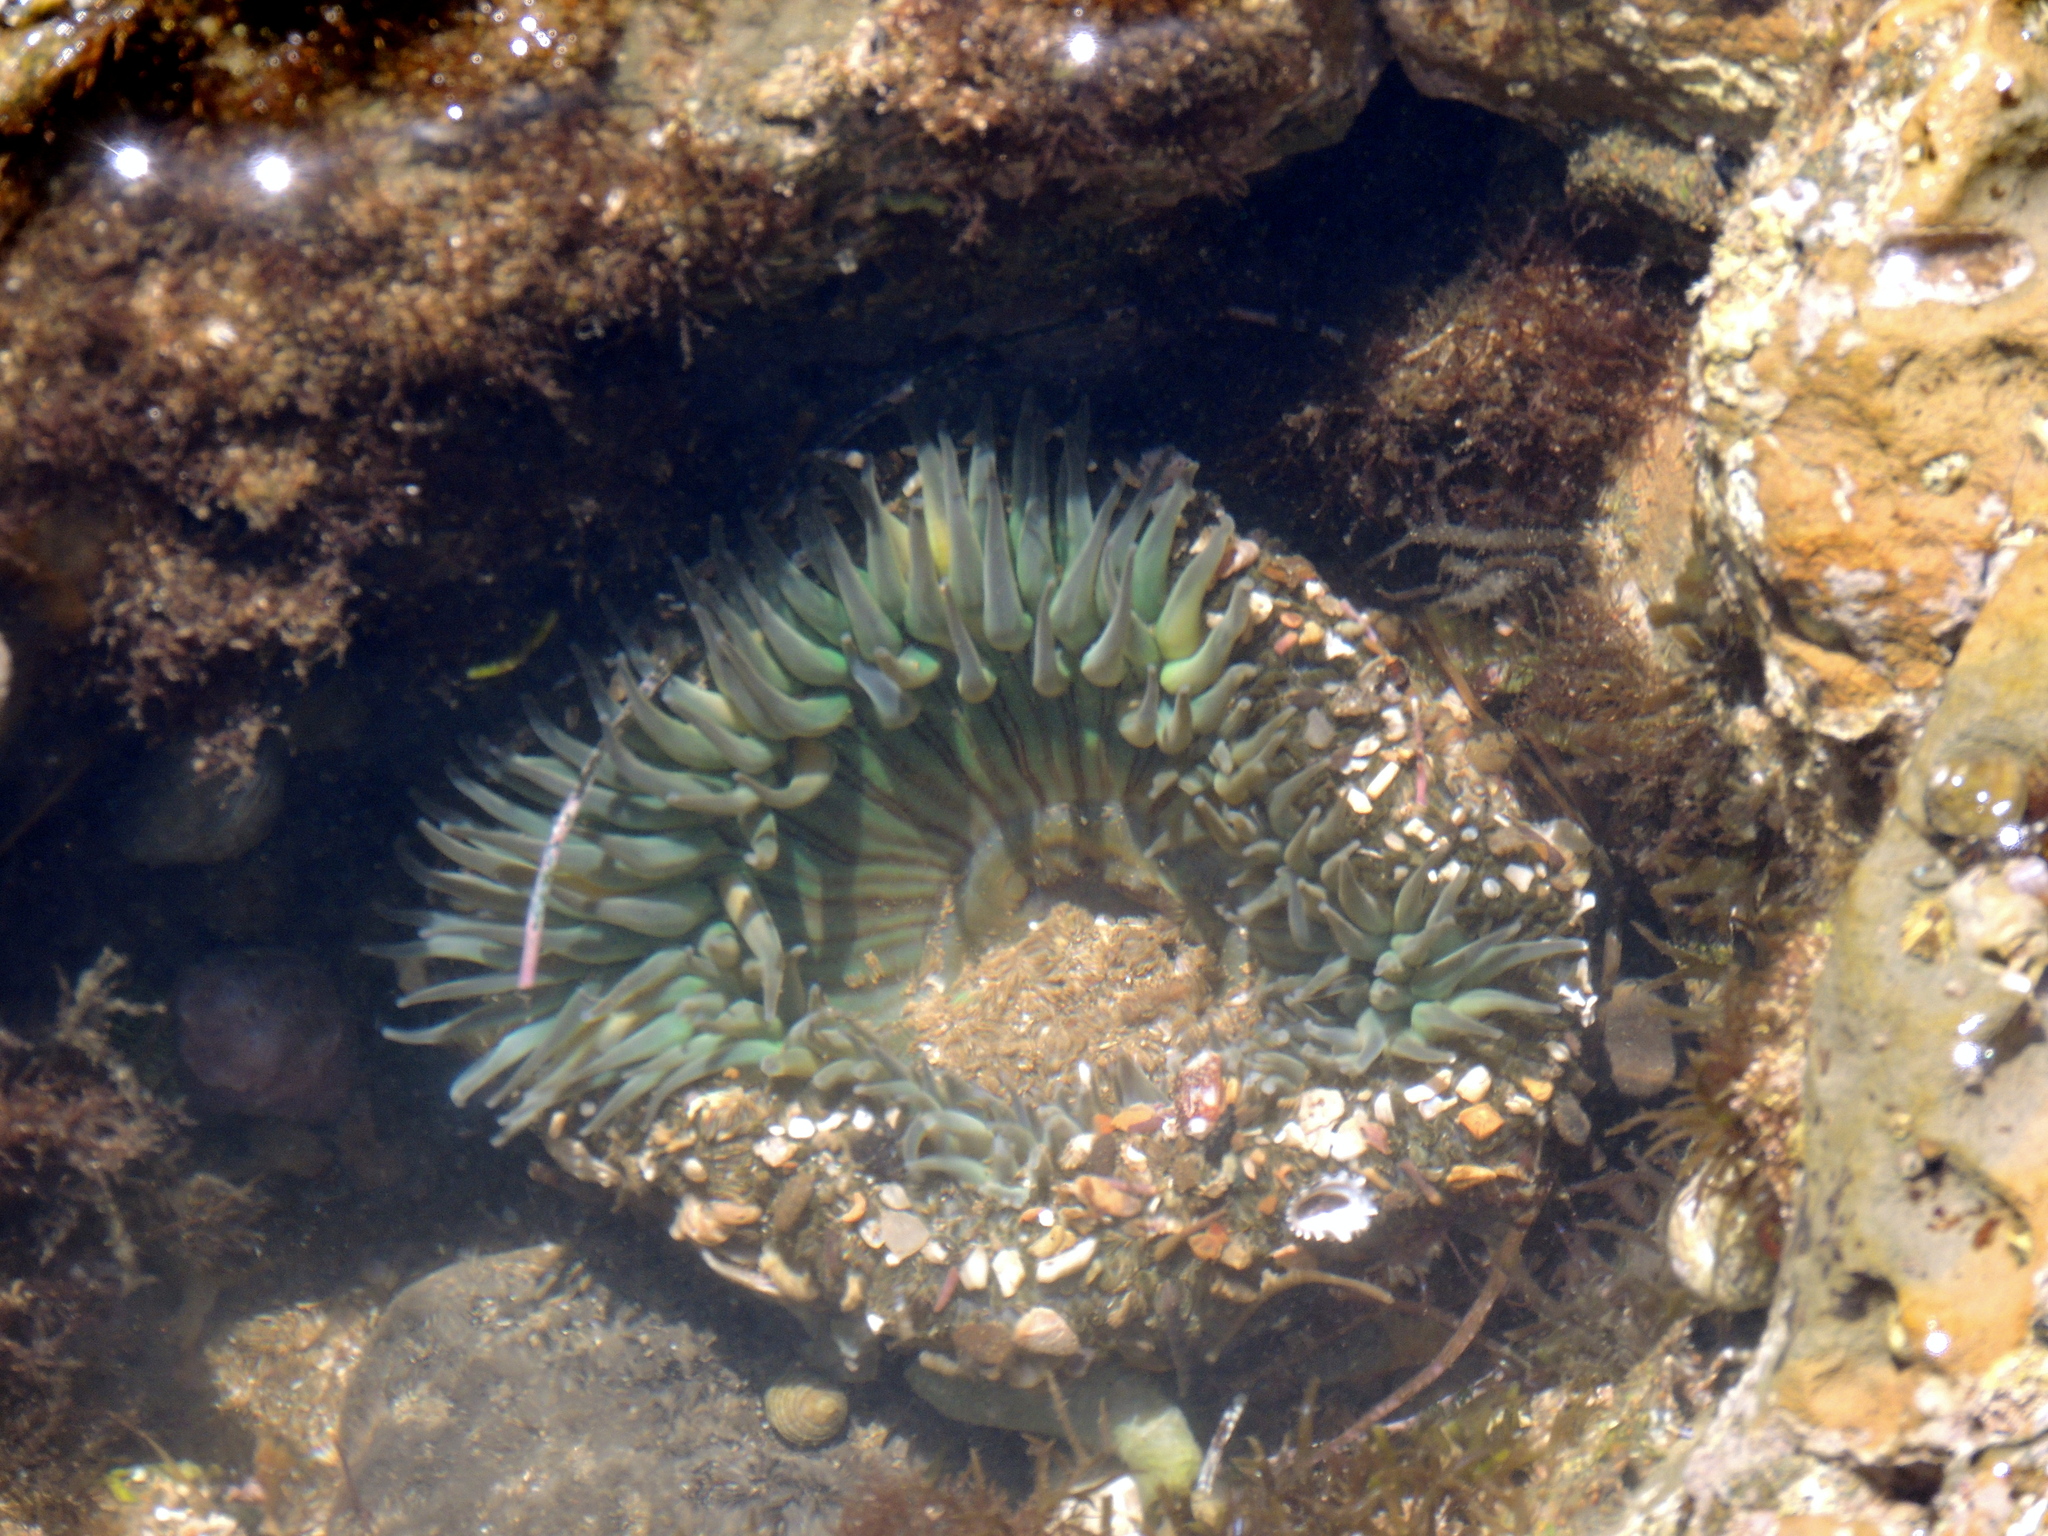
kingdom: Animalia
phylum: Cnidaria
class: Anthozoa
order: Actiniaria
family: Actiniidae
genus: Anthopleura
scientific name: Anthopleura sola
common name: Sun anemone
